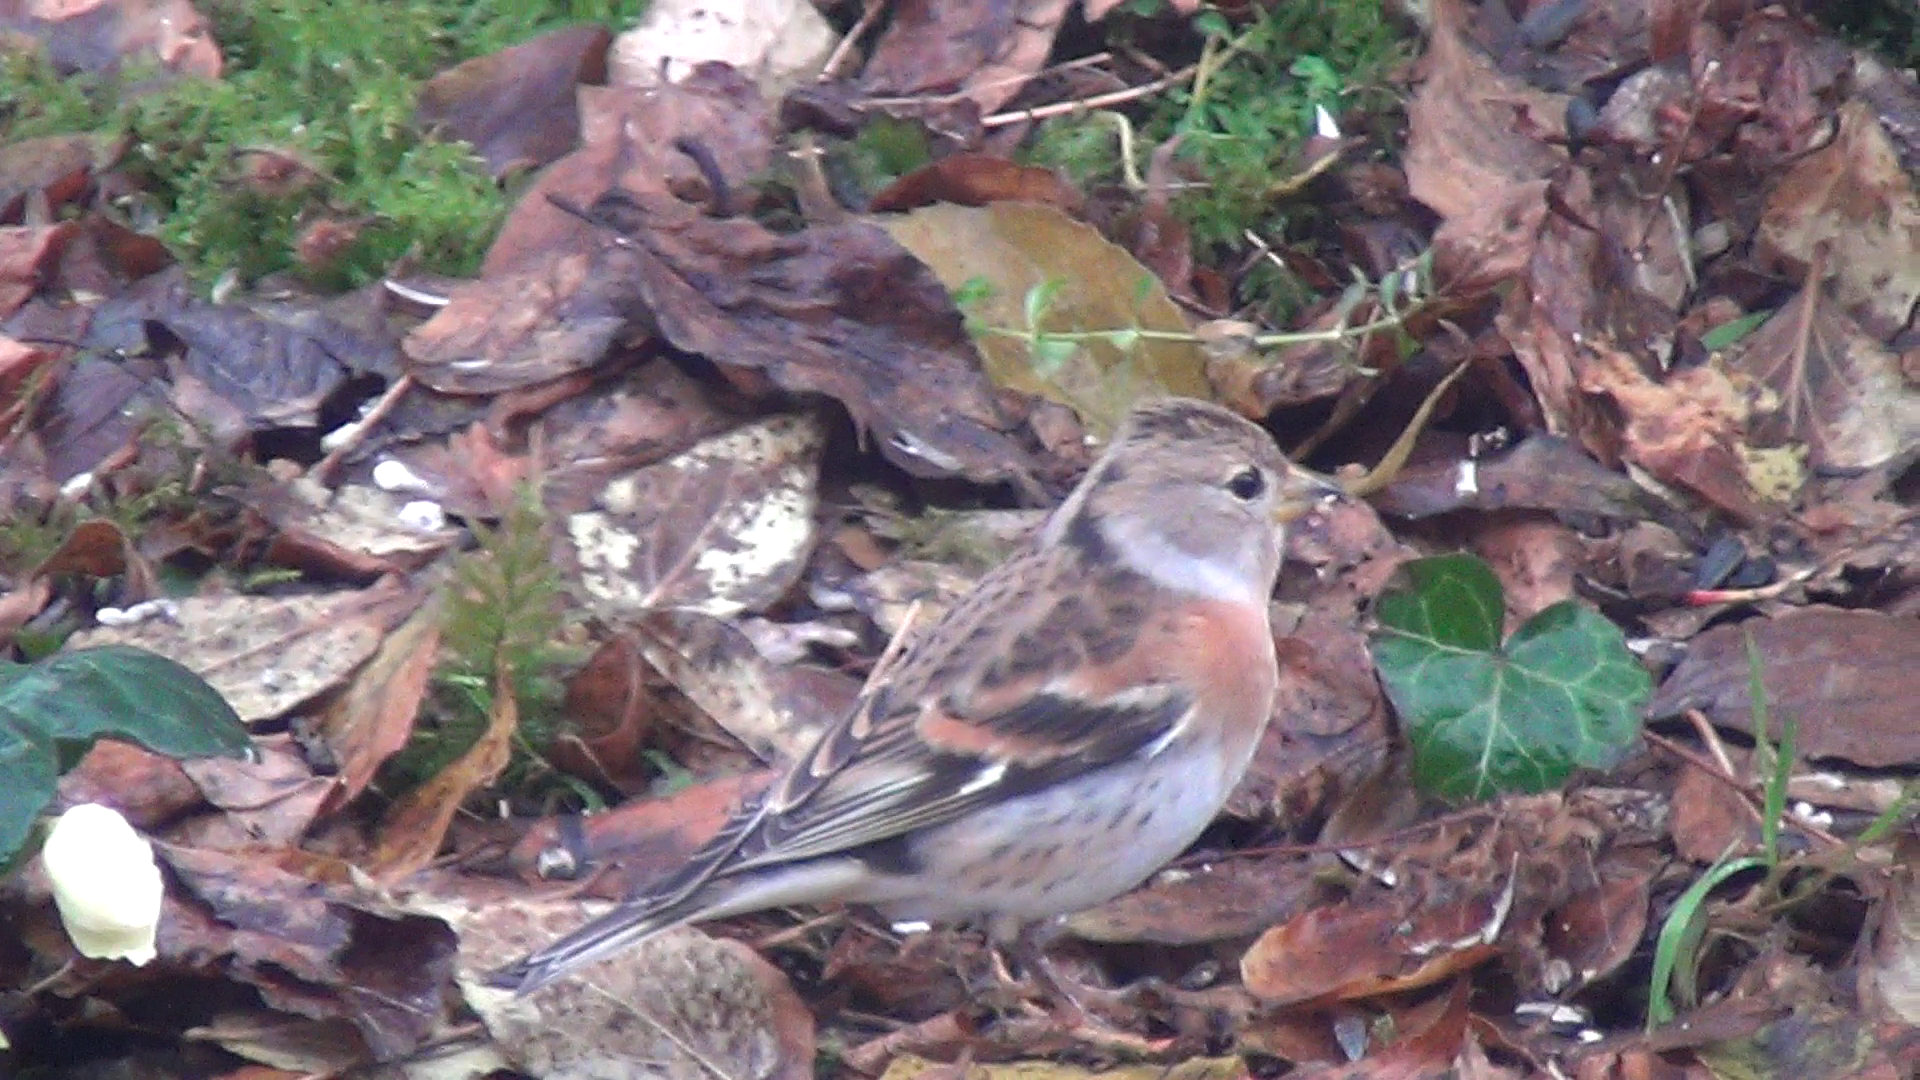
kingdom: Animalia
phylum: Chordata
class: Aves
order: Passeriformes
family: Fringillidae
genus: Fringilla
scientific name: Fringilla montifringilla
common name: Brambling
